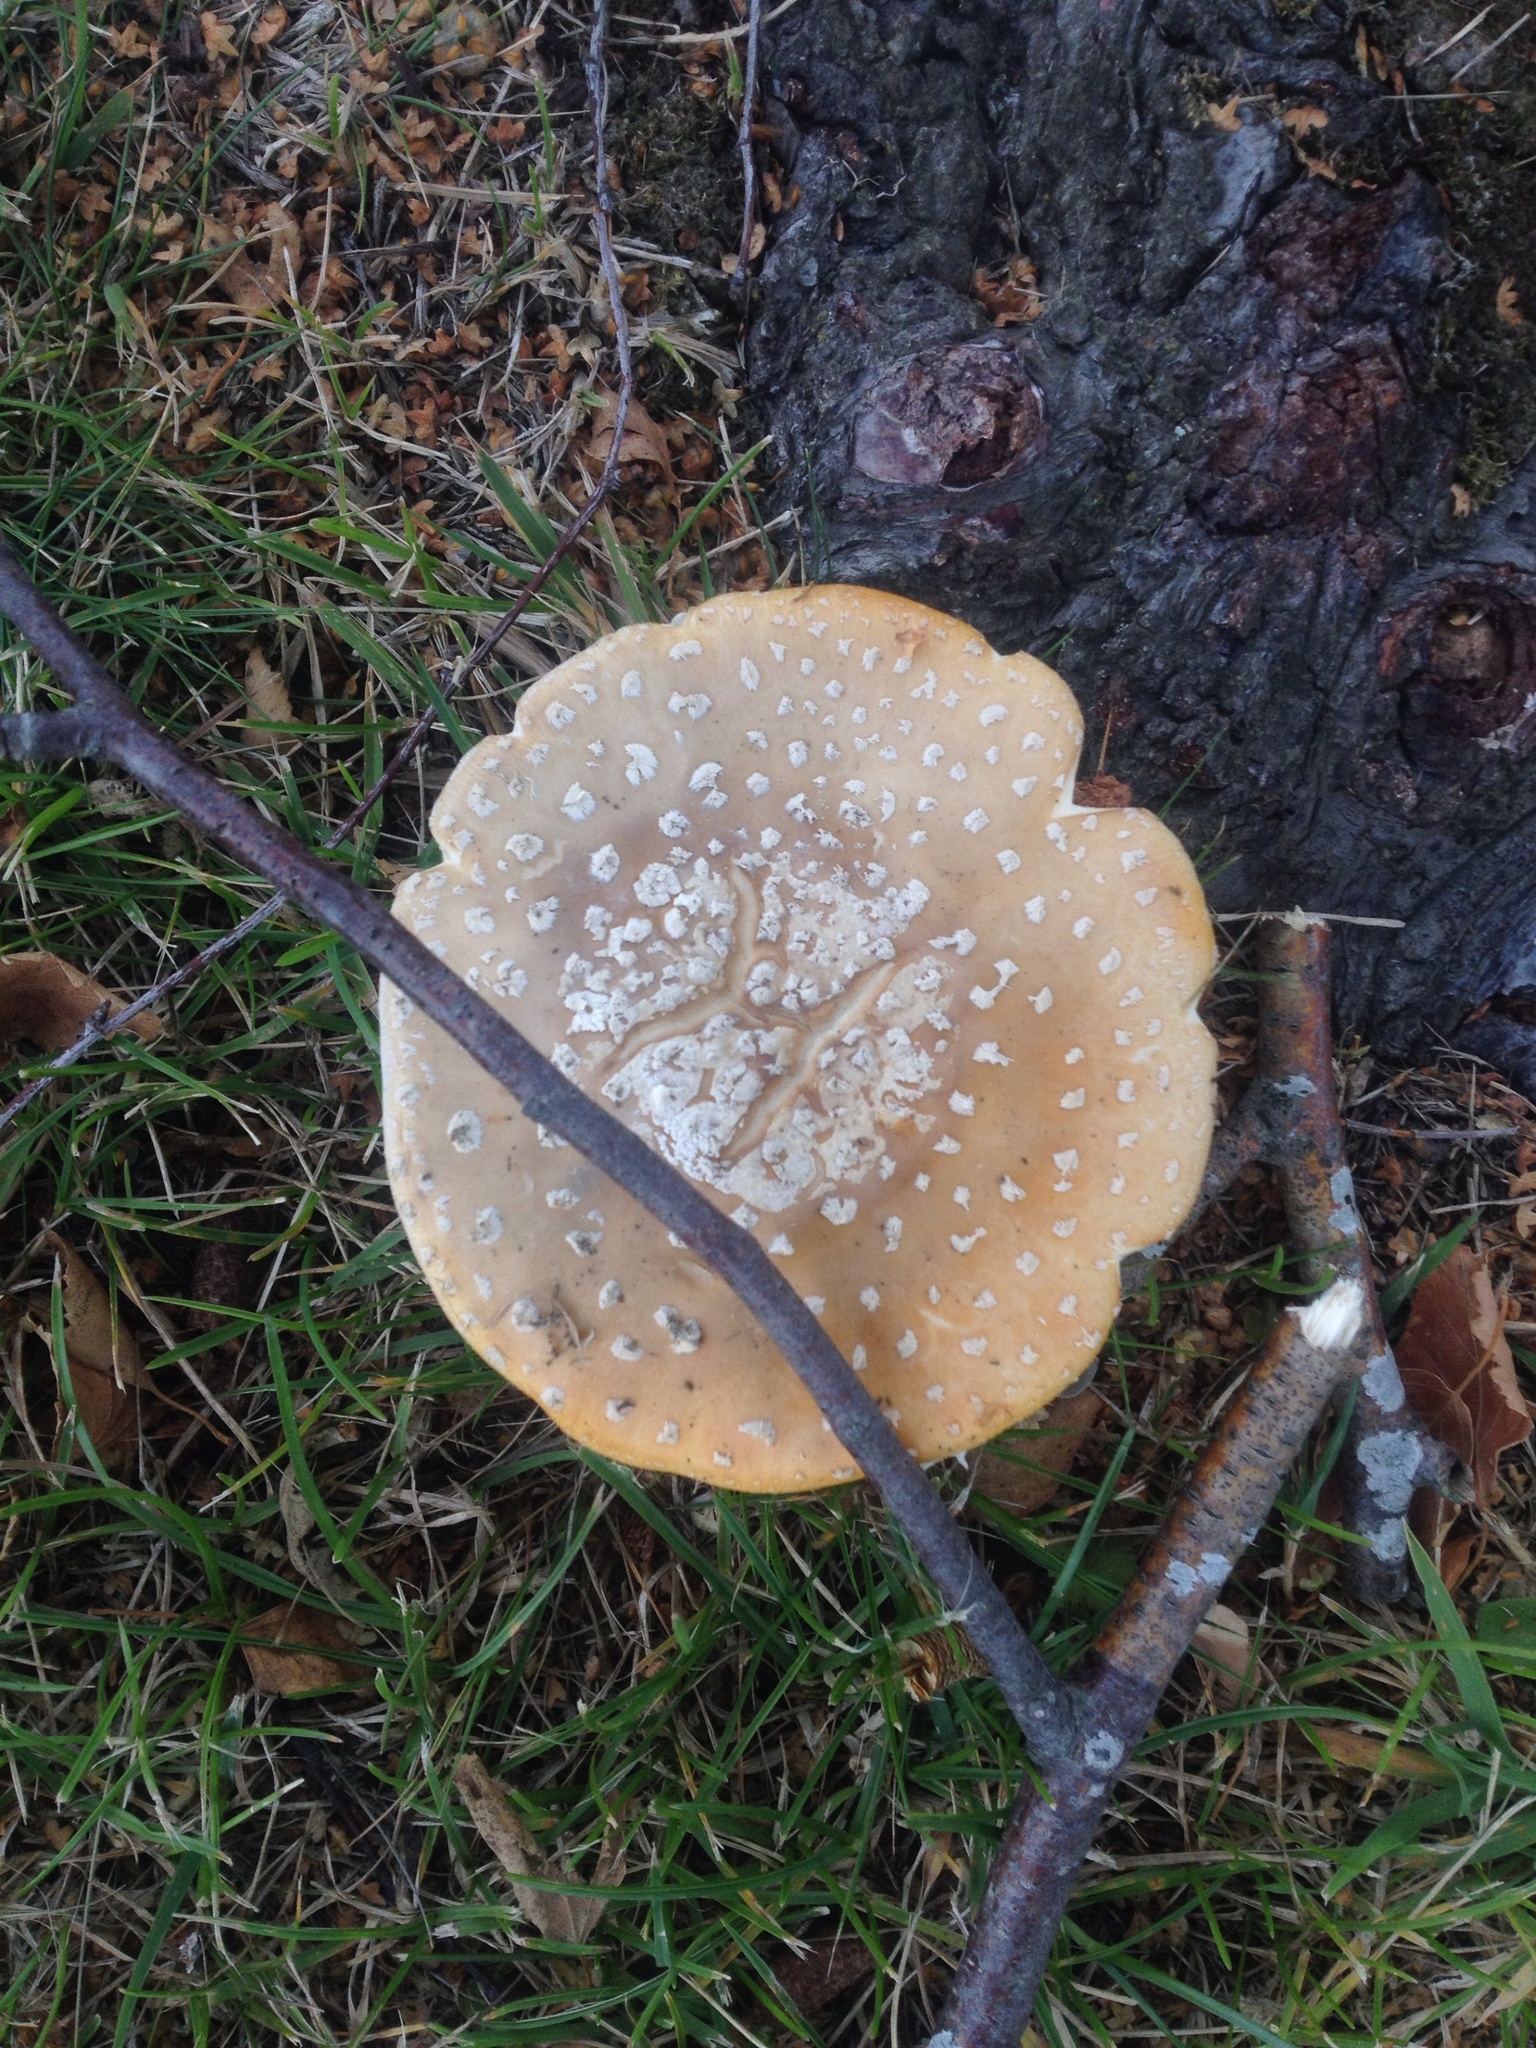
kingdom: Fungi
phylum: Basidiomycota
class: Agaricomycetes
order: Agaricales
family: Amanitaceae
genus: Amanita
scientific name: Amanita muscaria
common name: Fly agaric
